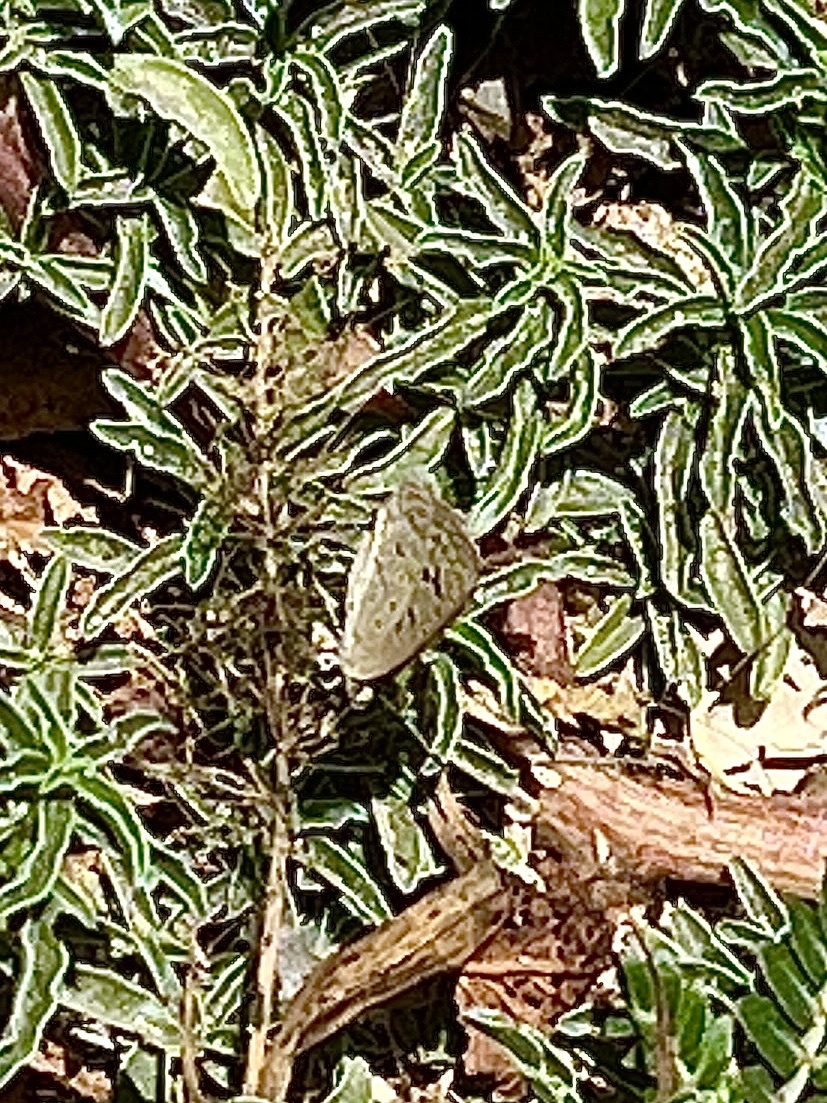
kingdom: Animalia
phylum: Arthropoda
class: Insecta
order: Lepidoptera
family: Lycaenidae
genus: Zizeeria
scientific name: Zizeeria karsandra
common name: Dark grass blue
